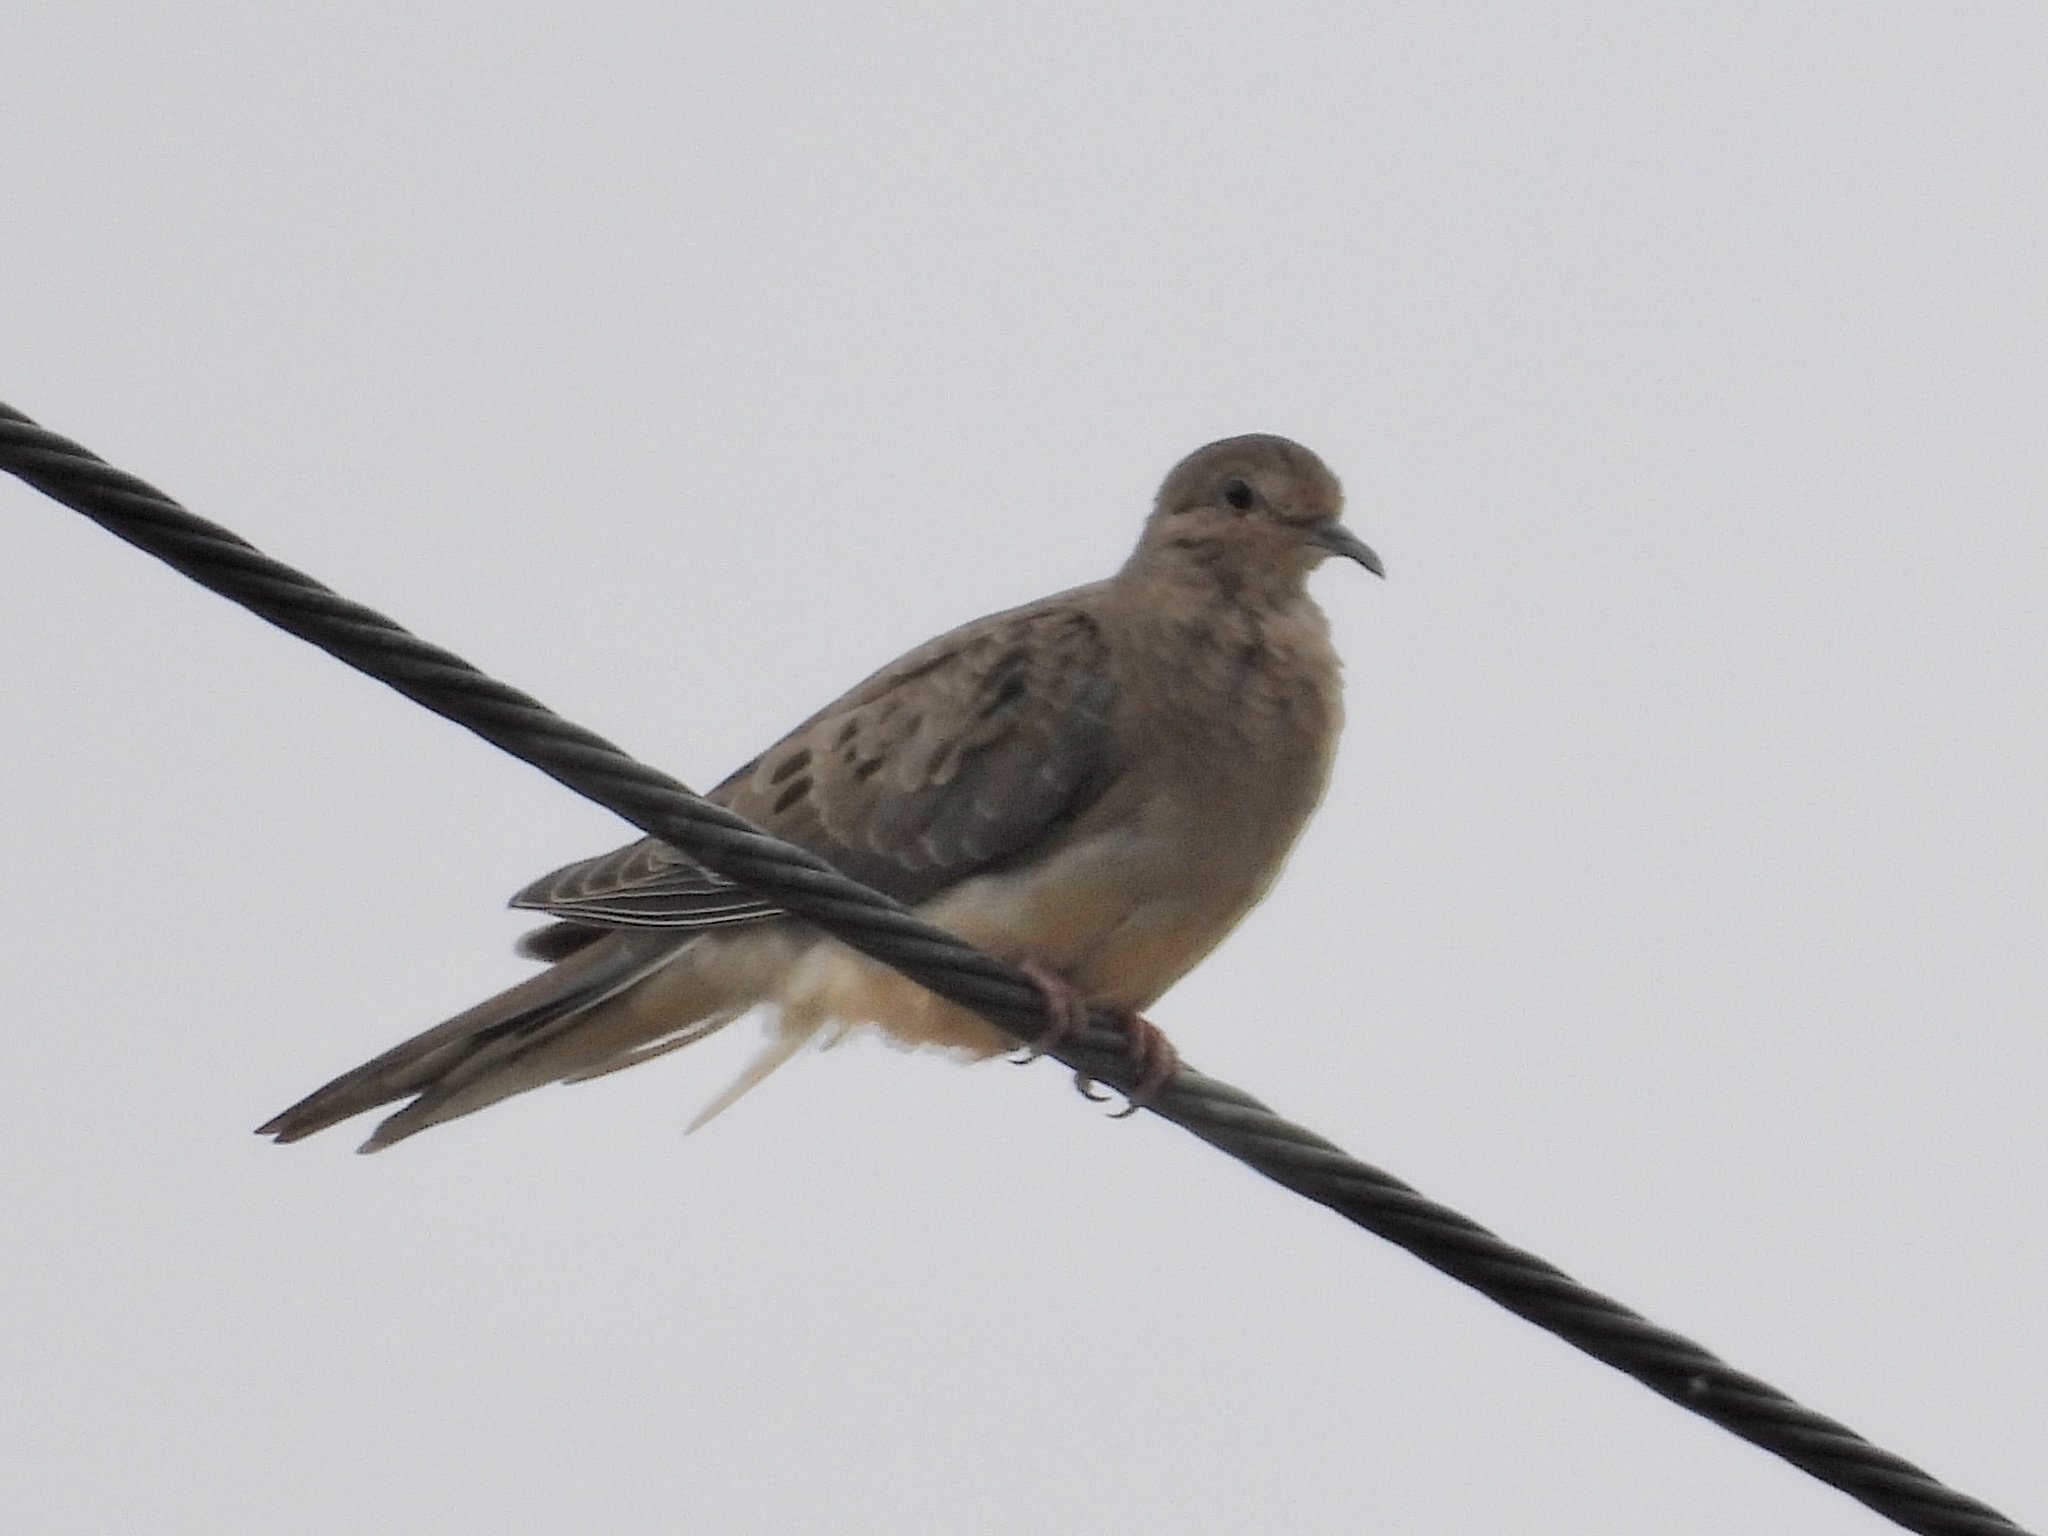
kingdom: Animalia
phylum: Chordata
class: Aves
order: Columbiformes
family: Columbidae
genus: Zenaida
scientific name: Zenaida macroura
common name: Mourning dove
